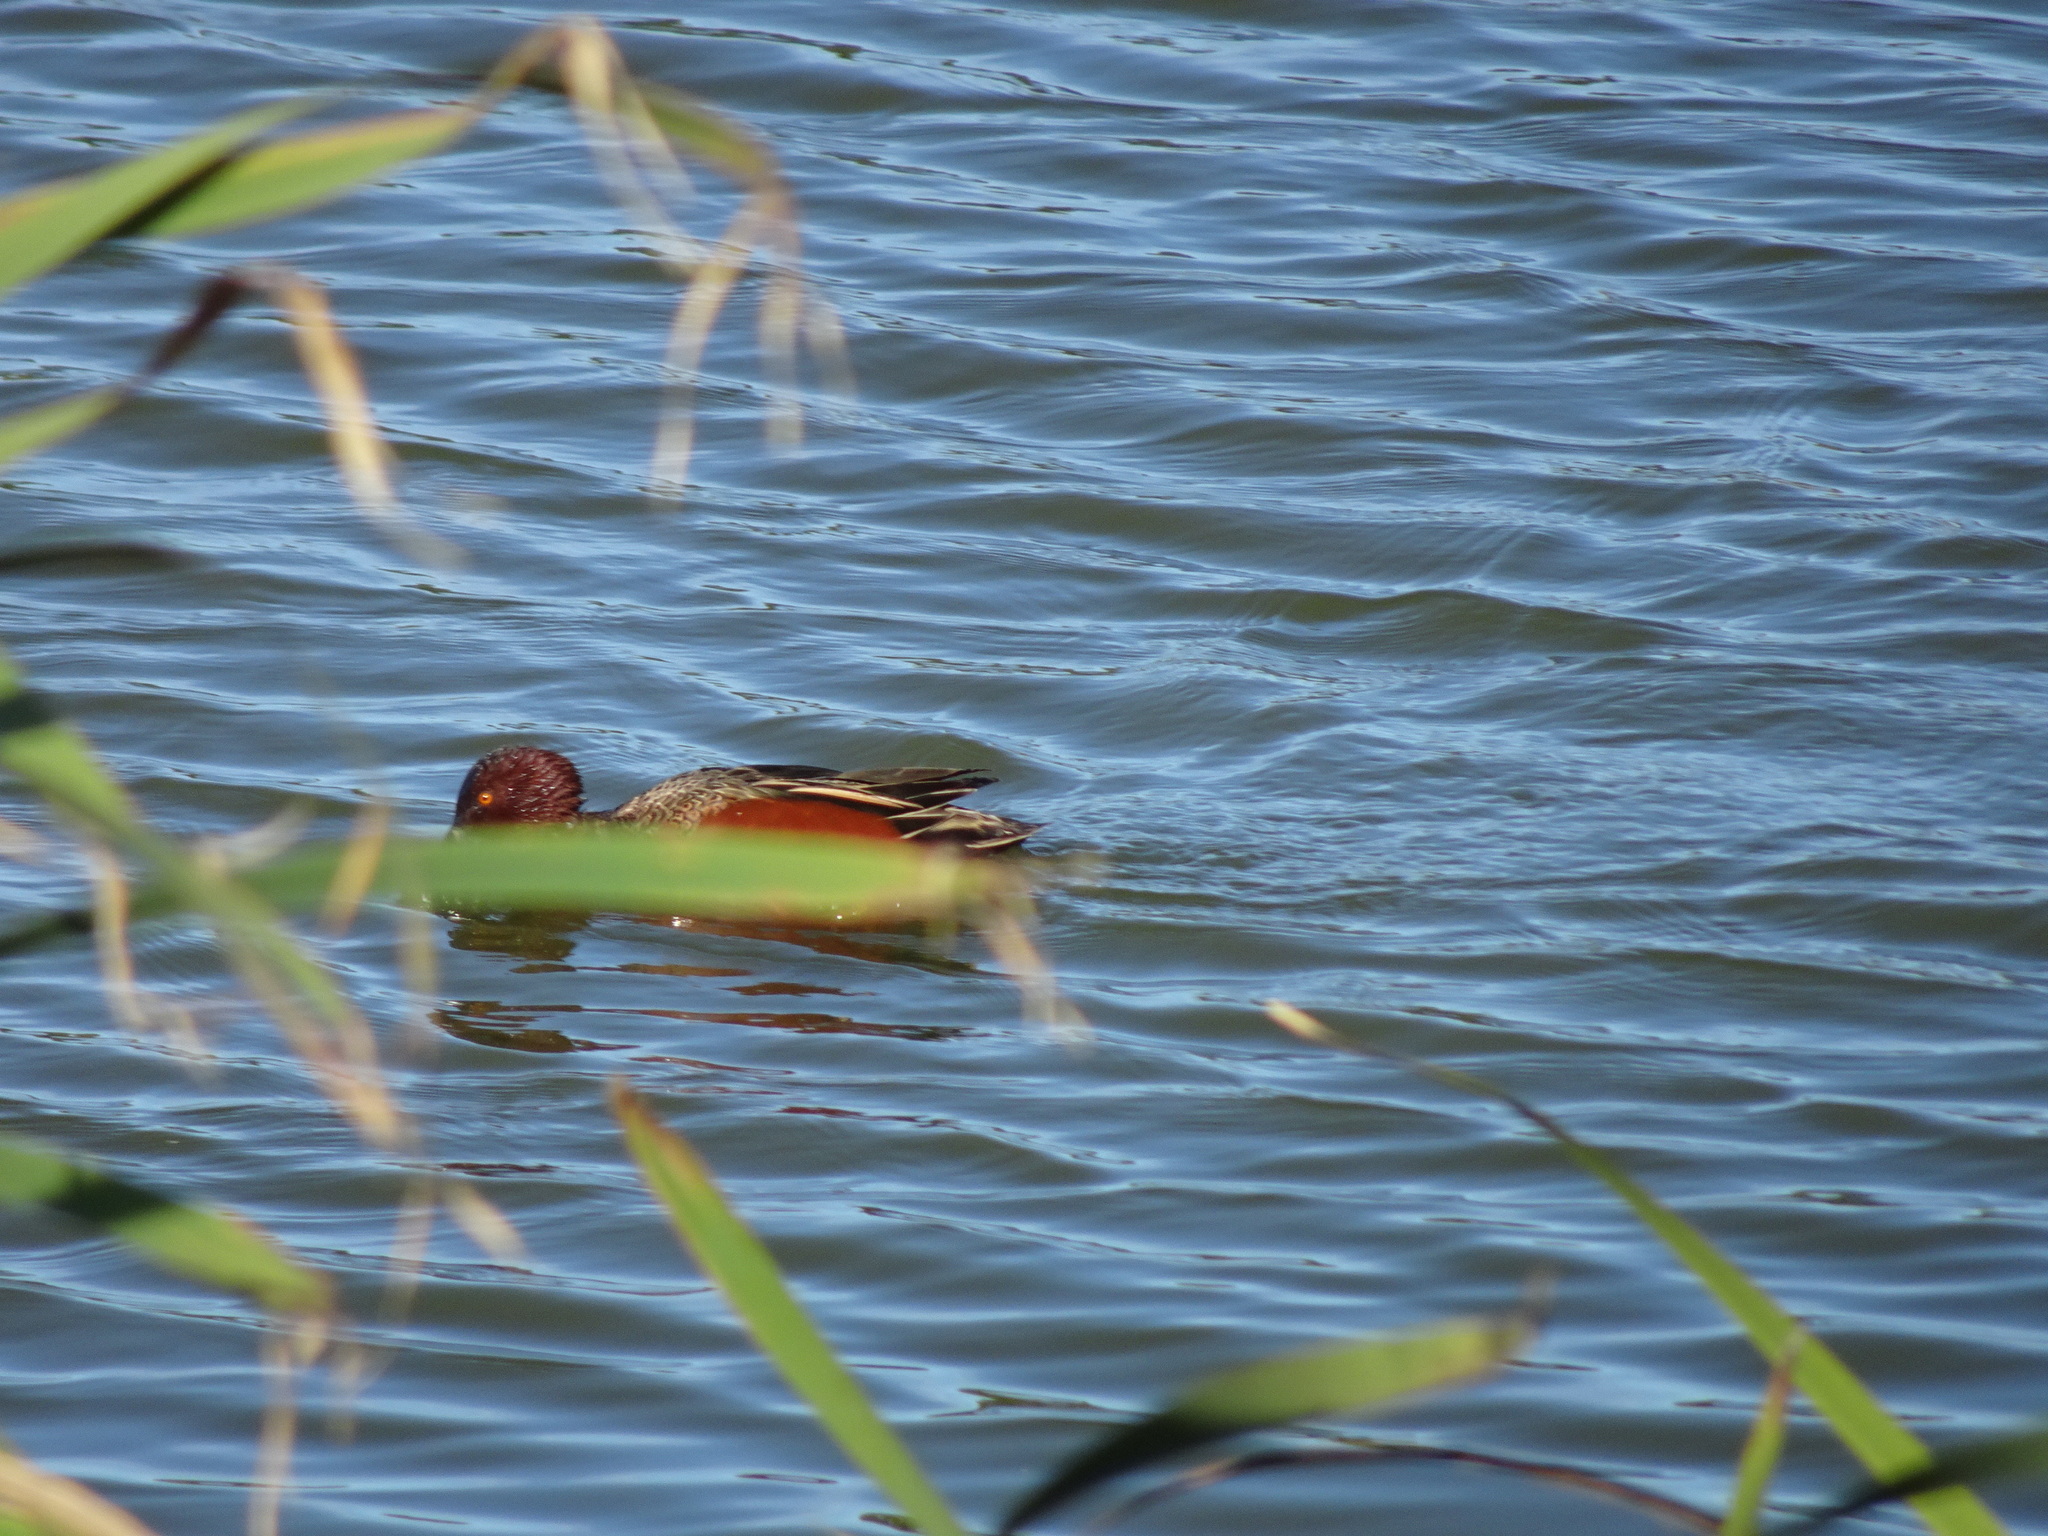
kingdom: Animalia
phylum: Chordata
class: Aves
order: Anseriformes
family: Anatidae
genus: Spatula
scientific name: Spatula cyanoptera
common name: Cinnamon teal
